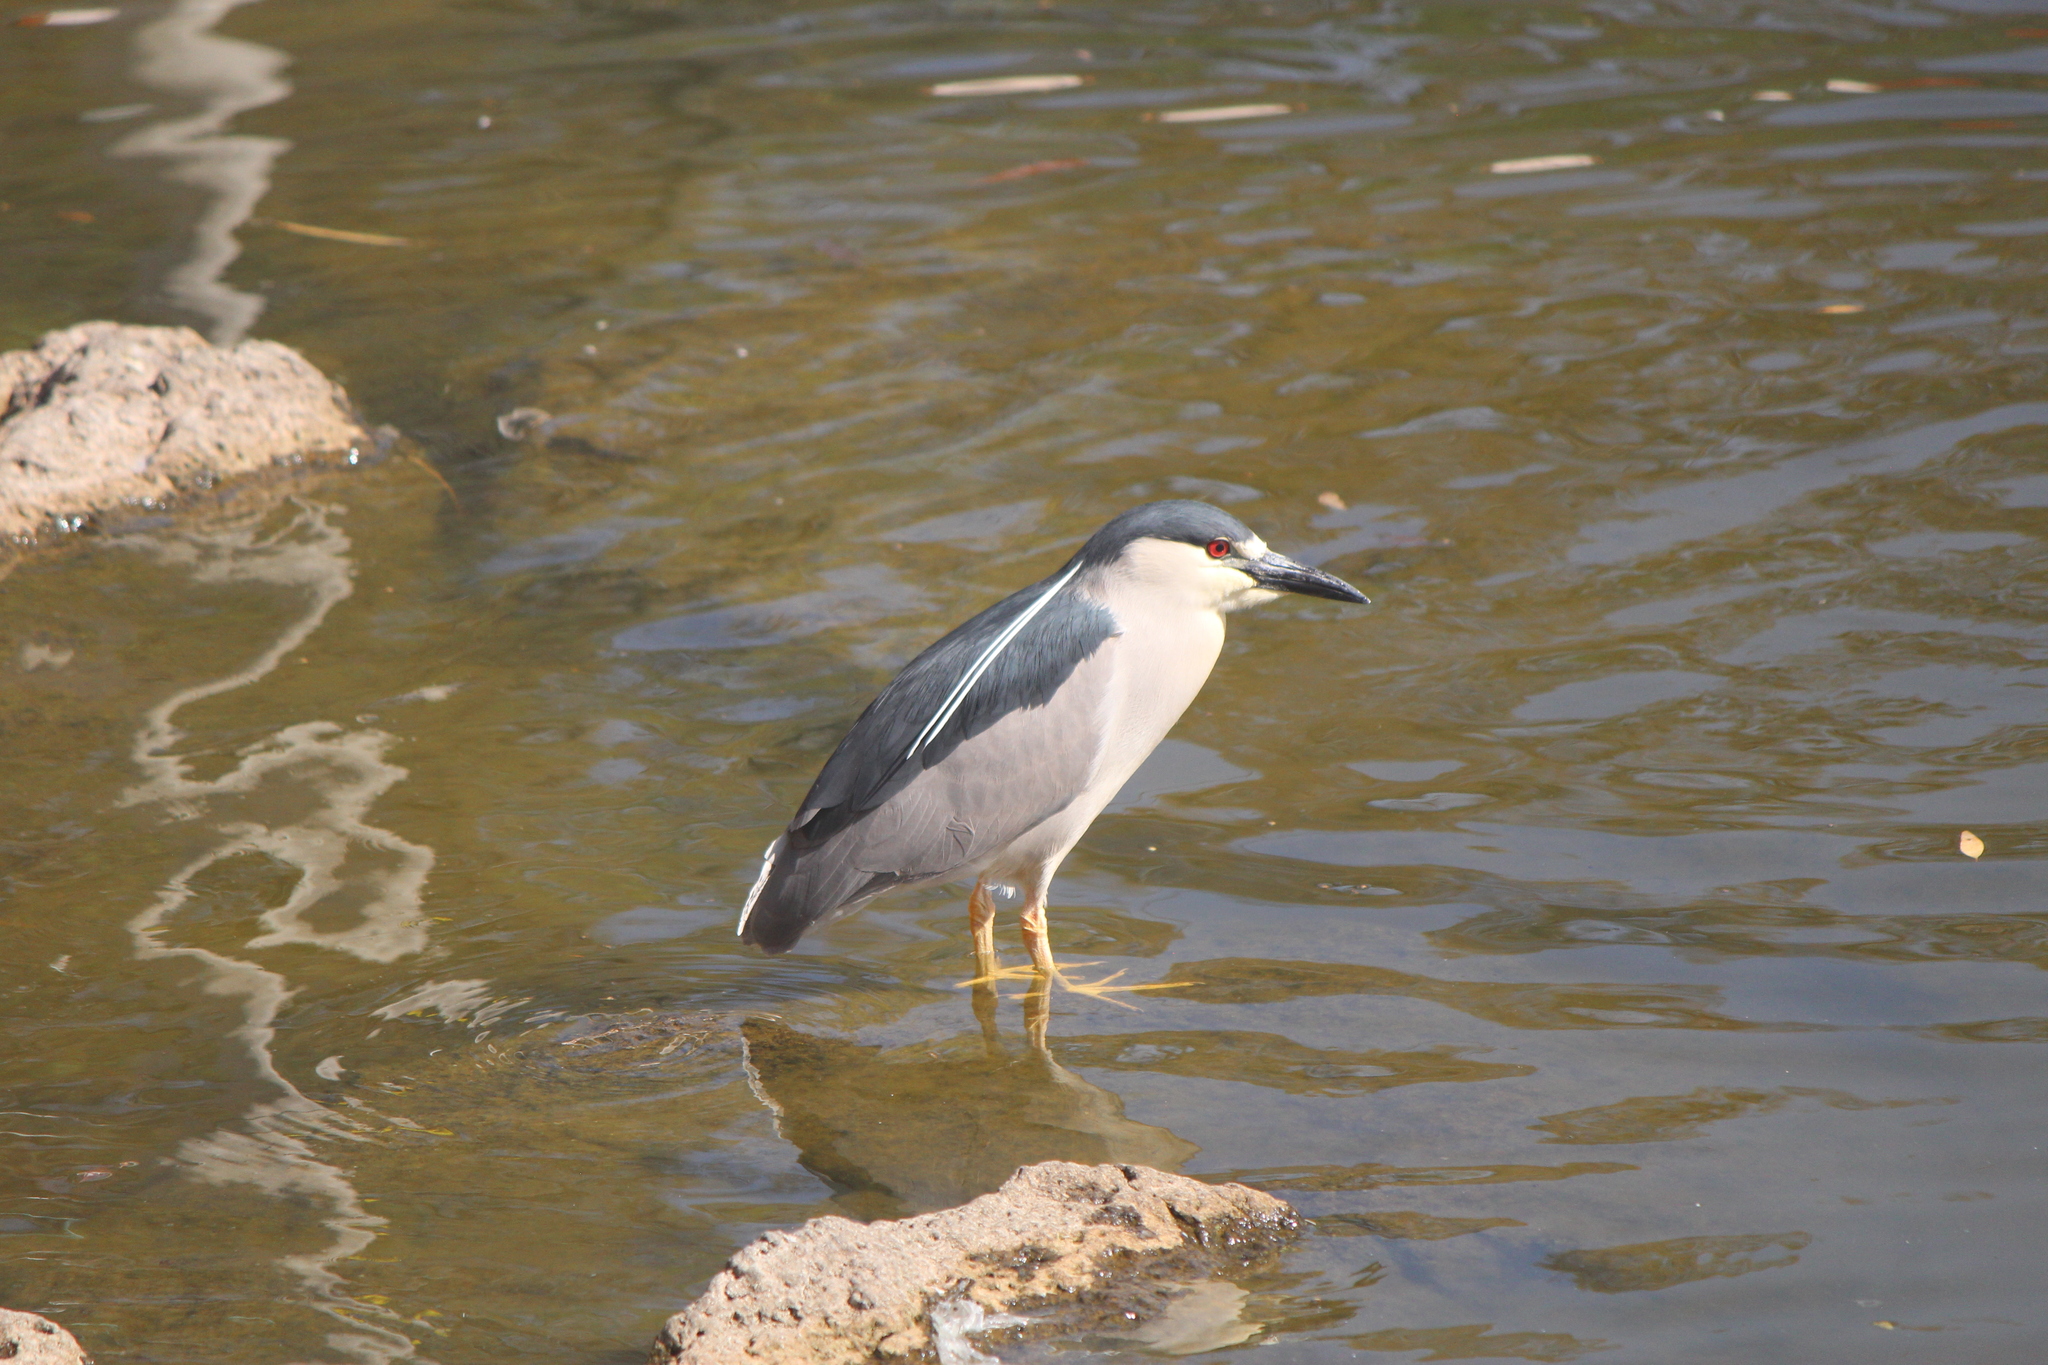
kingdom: Animalia
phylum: Chordata
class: Aves
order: Pelecaniformes
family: Ardeidae
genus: Nycticorax
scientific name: Nycticorax nycticorax
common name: Black-crowned night heron
